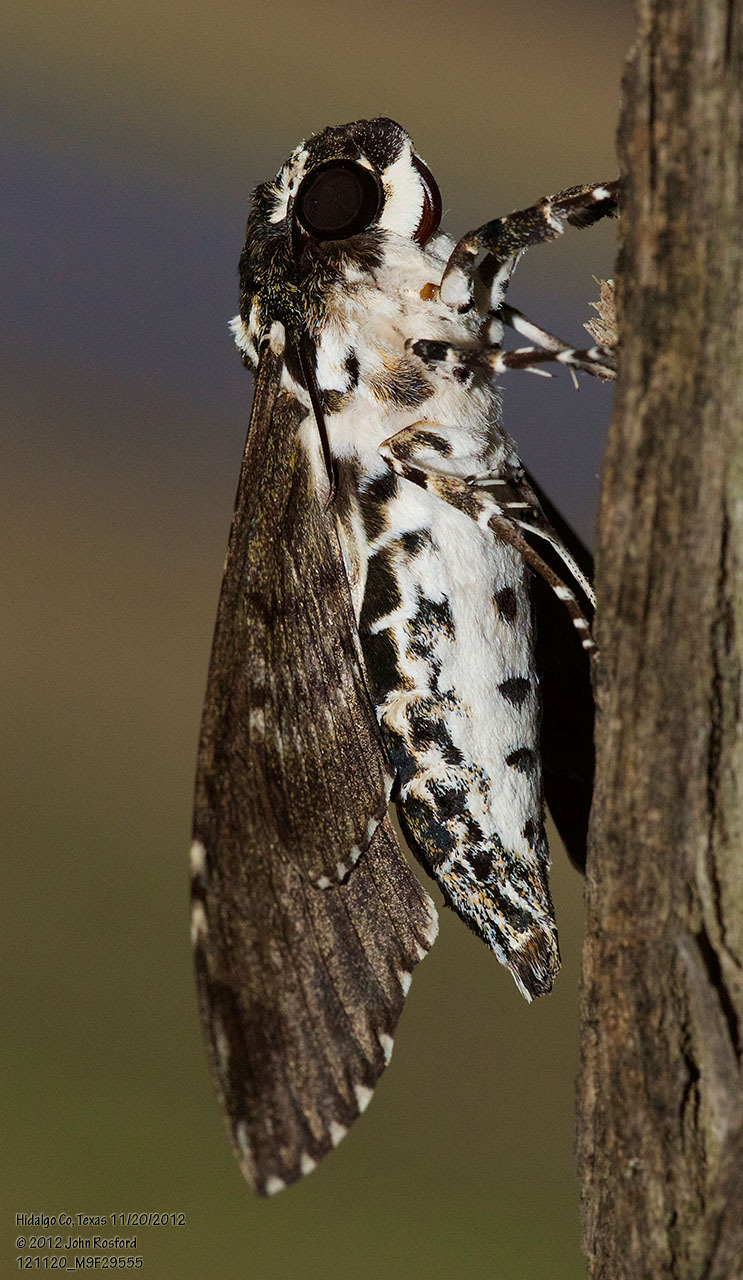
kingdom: Animalia
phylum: Arthropoda
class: Insecta
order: Lepidoptera
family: Sphingidae
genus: Manduca
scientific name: Manduca rustica
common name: Rustic sphinx
